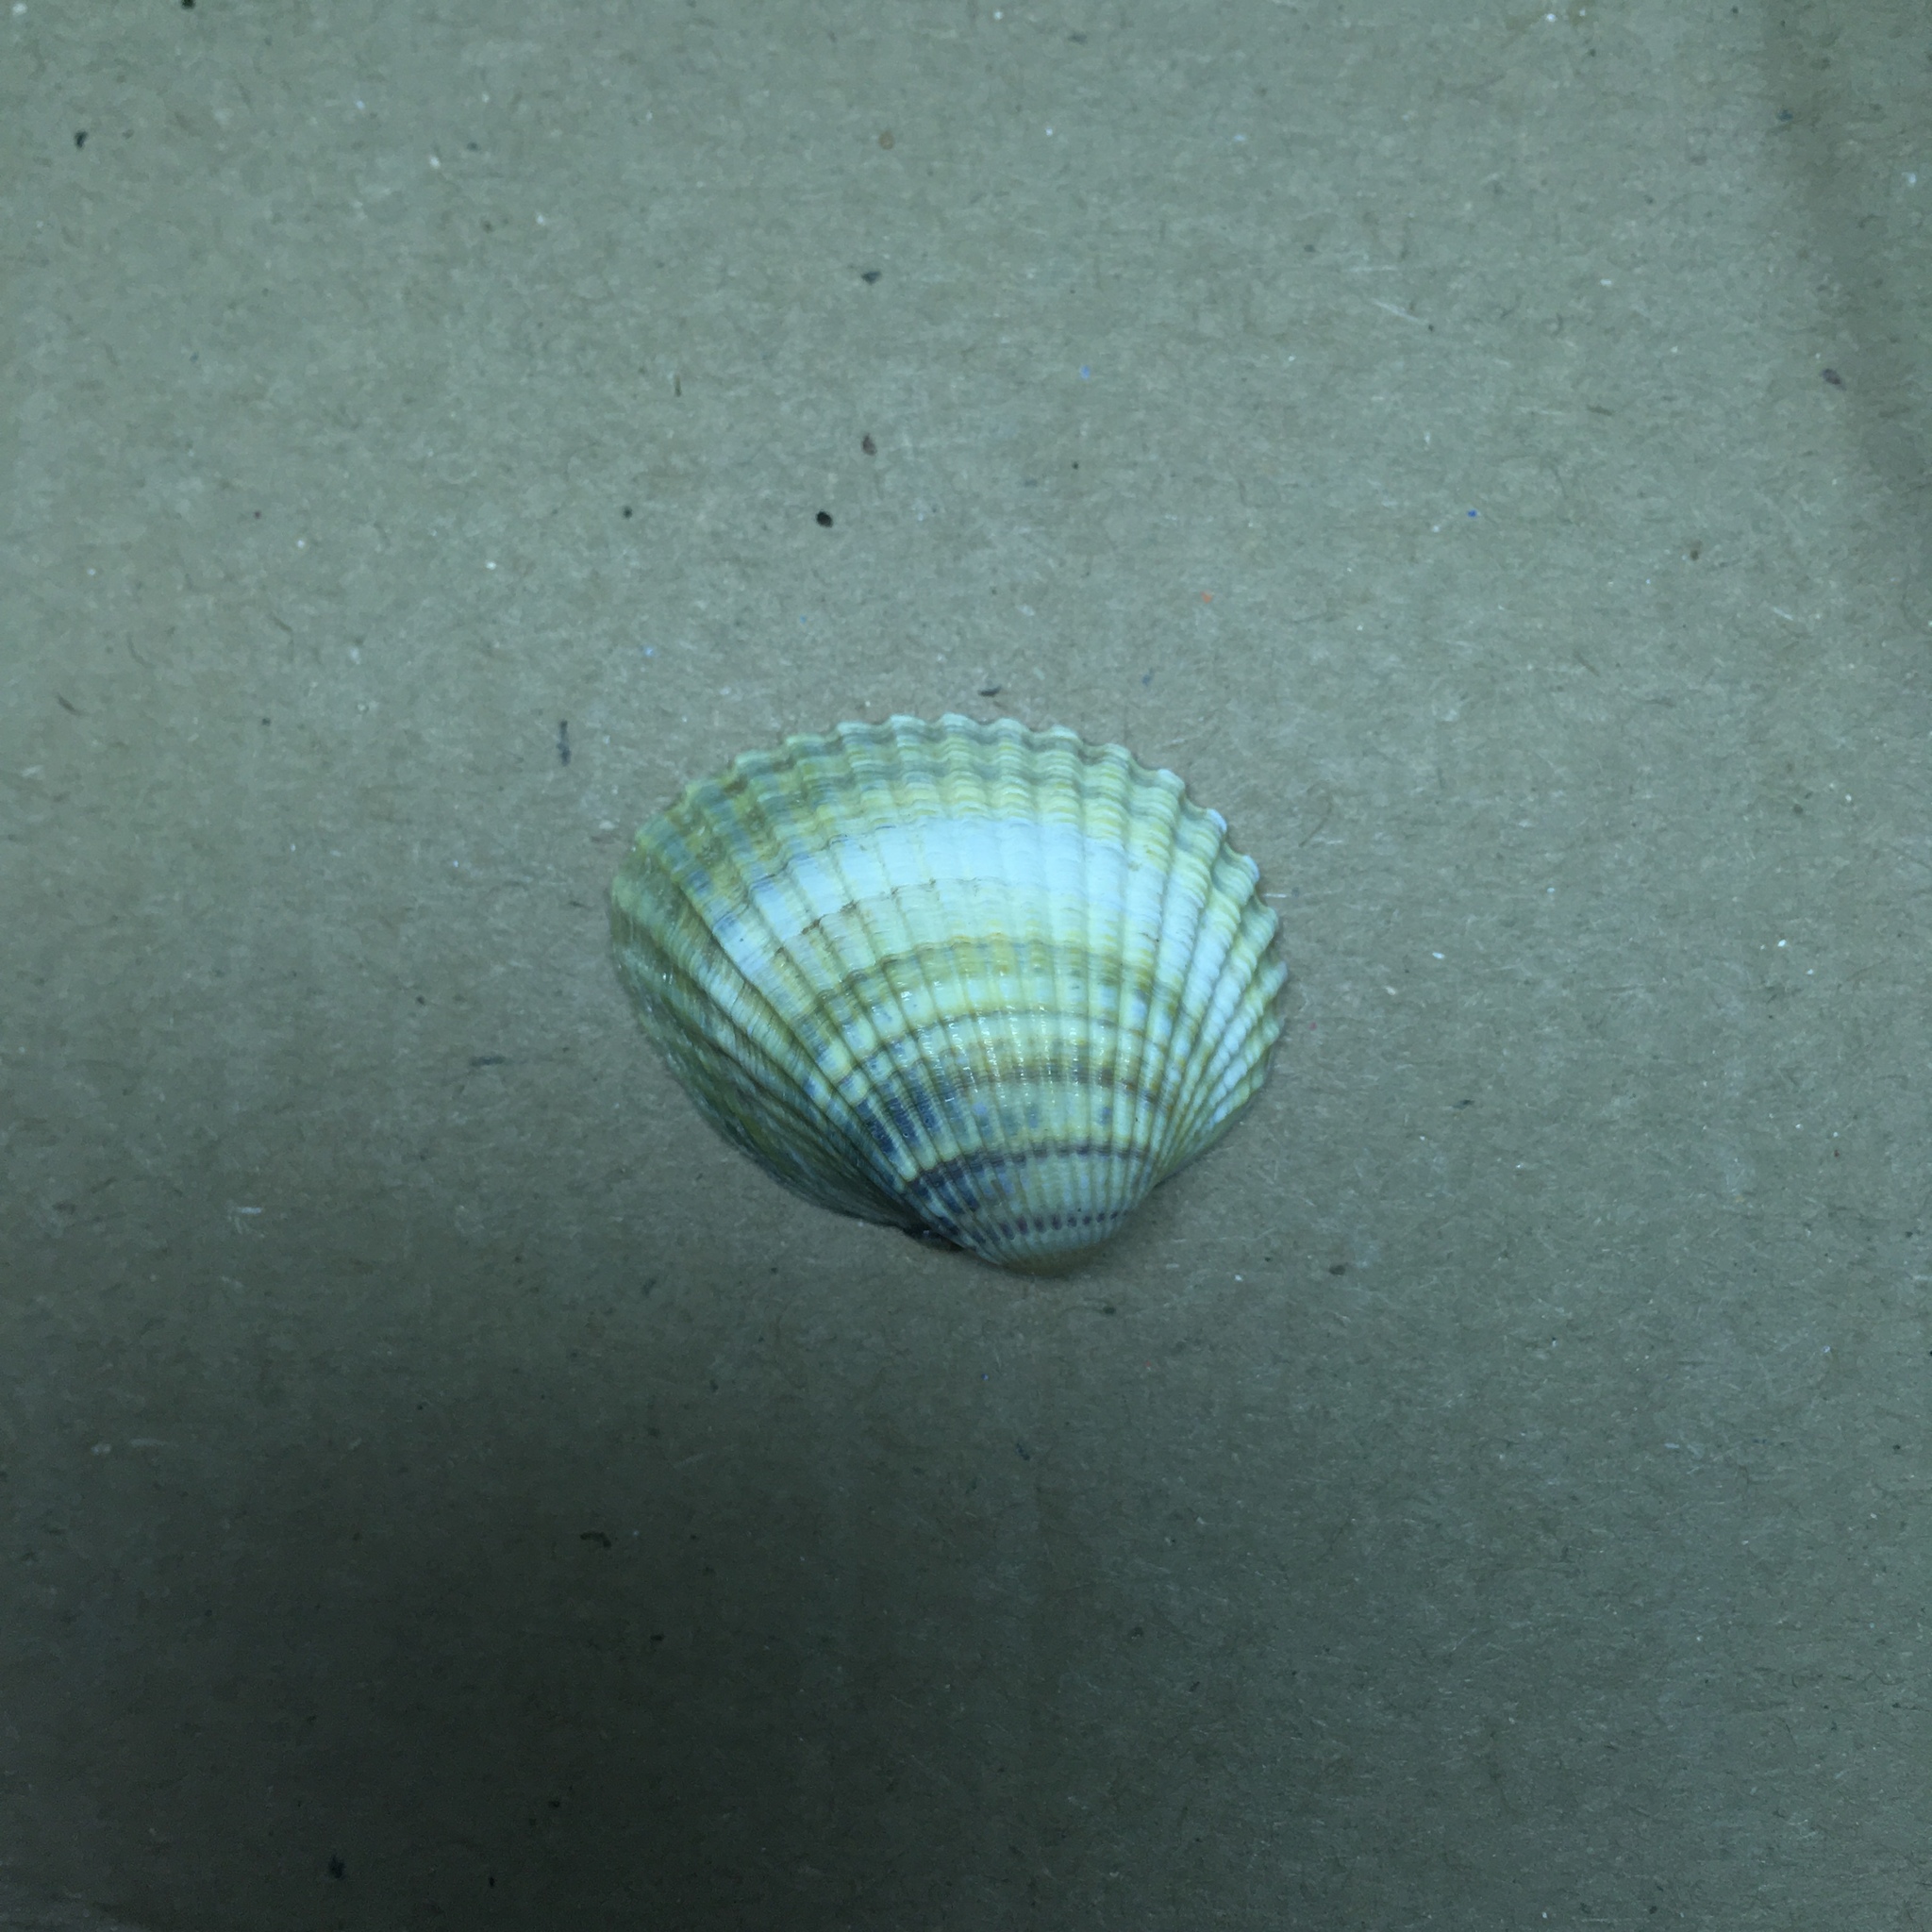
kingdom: Animalia
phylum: Mollusca
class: Bivalvia
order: Cardiida
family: Cardiidae
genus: Cerastoderma
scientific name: Cerastoderma glaucum
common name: Lagoon cockle
